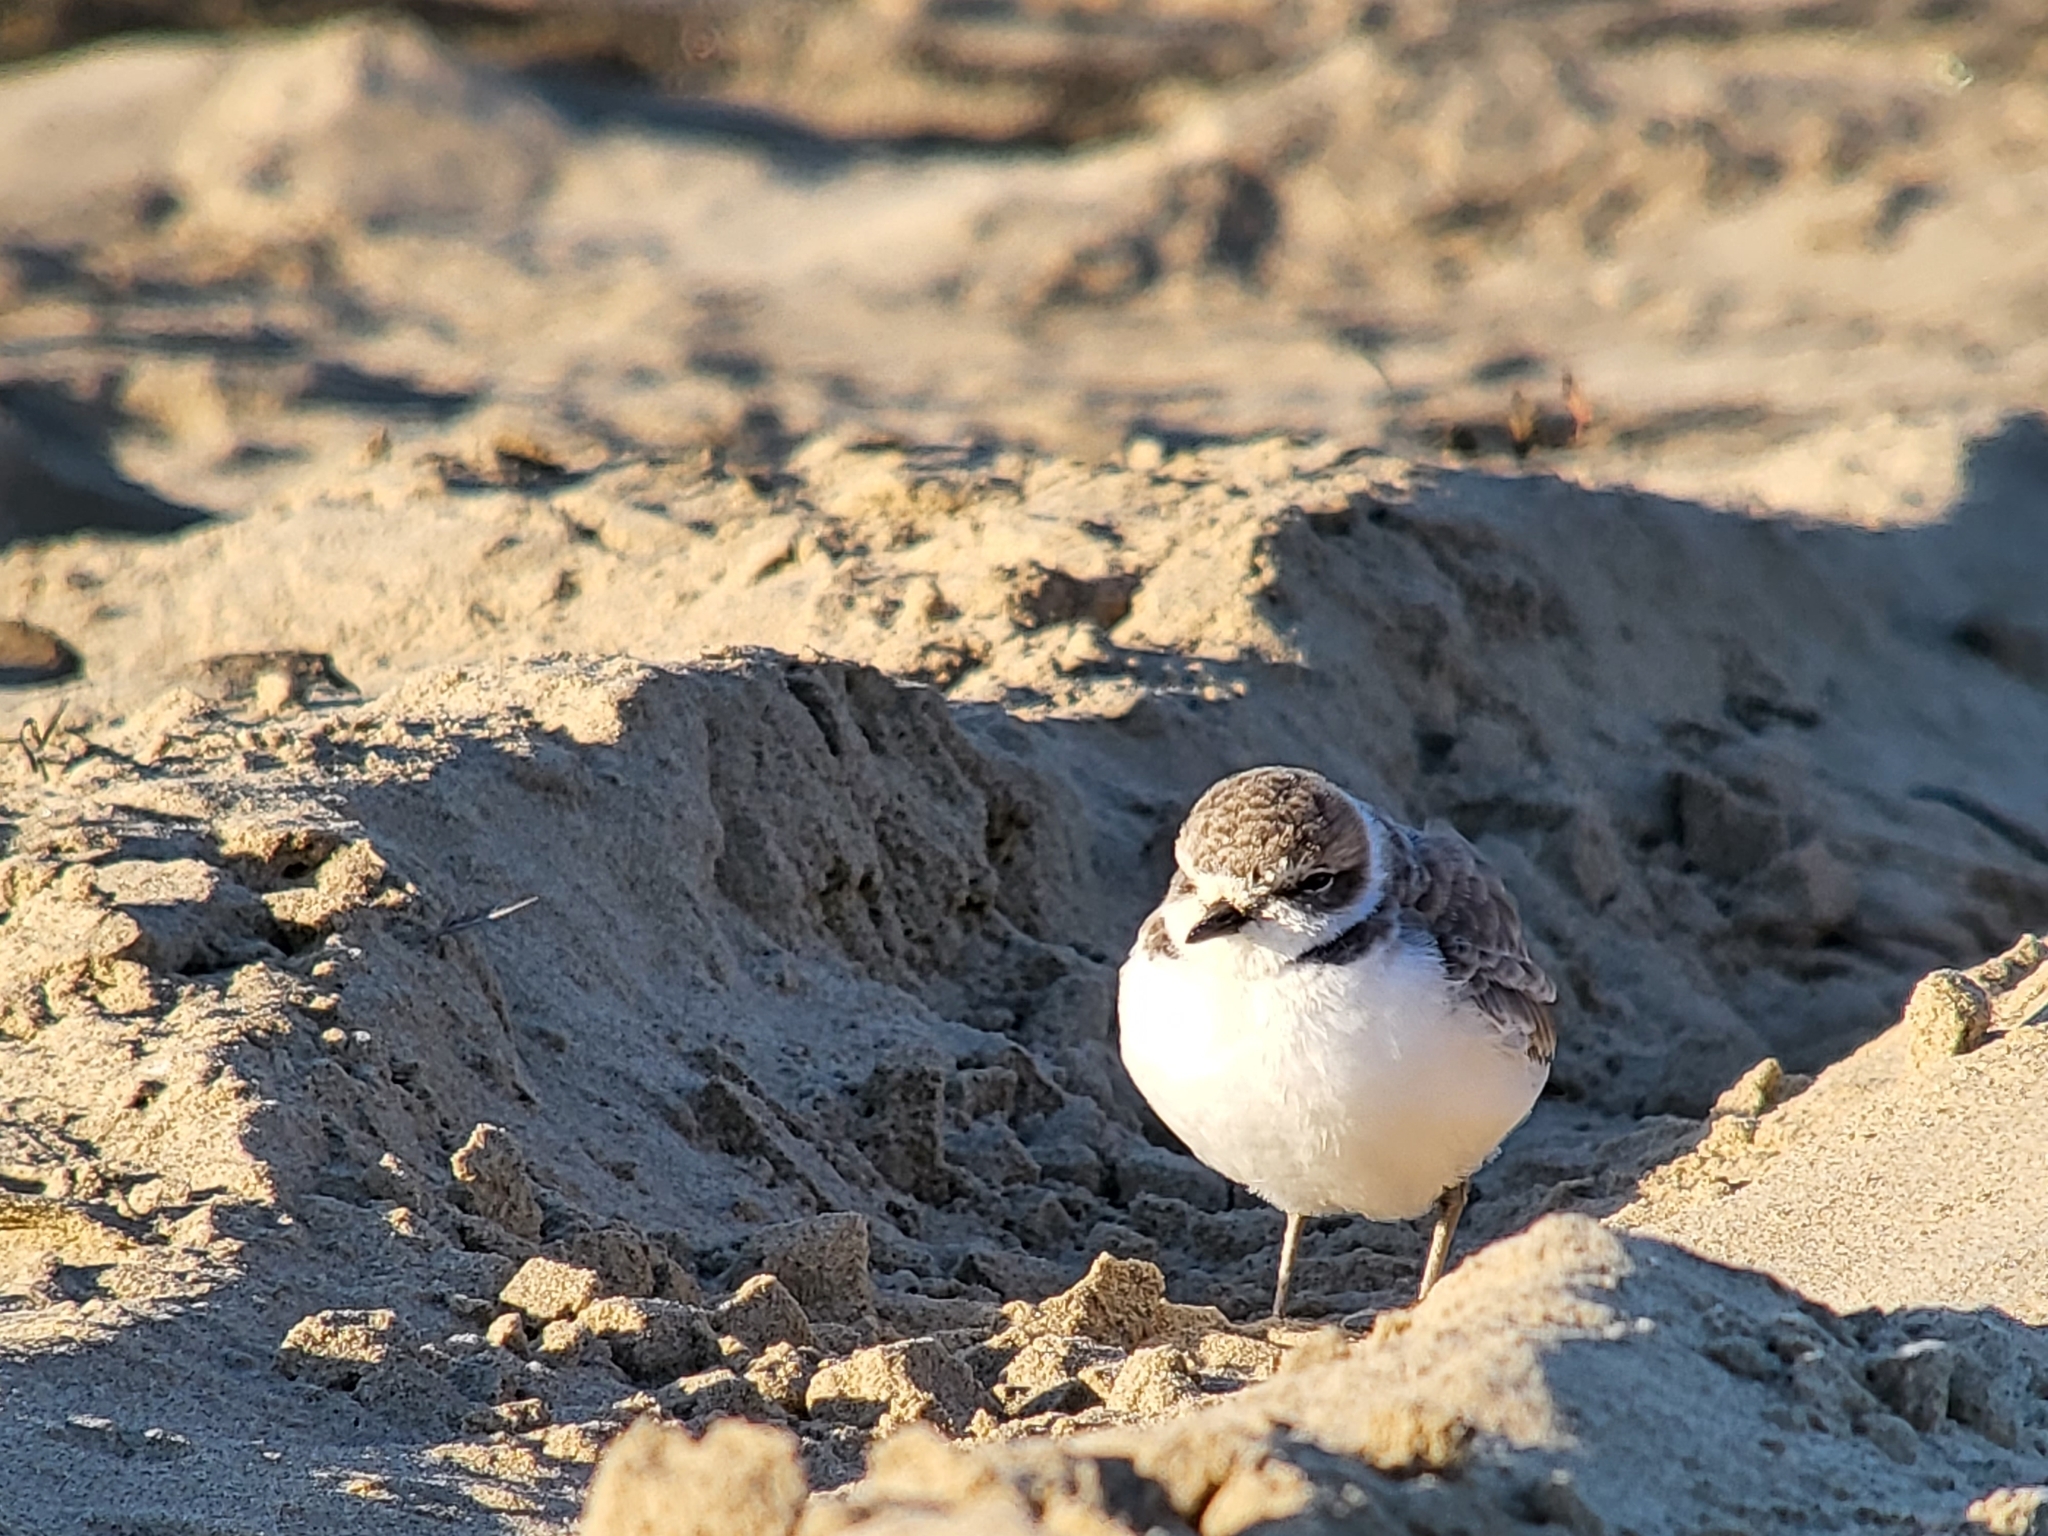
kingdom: Animalia
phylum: Chordata
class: Aves
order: Charadriiformes
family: Charadriidae
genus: Anarhynchus
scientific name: Anarhynchus
